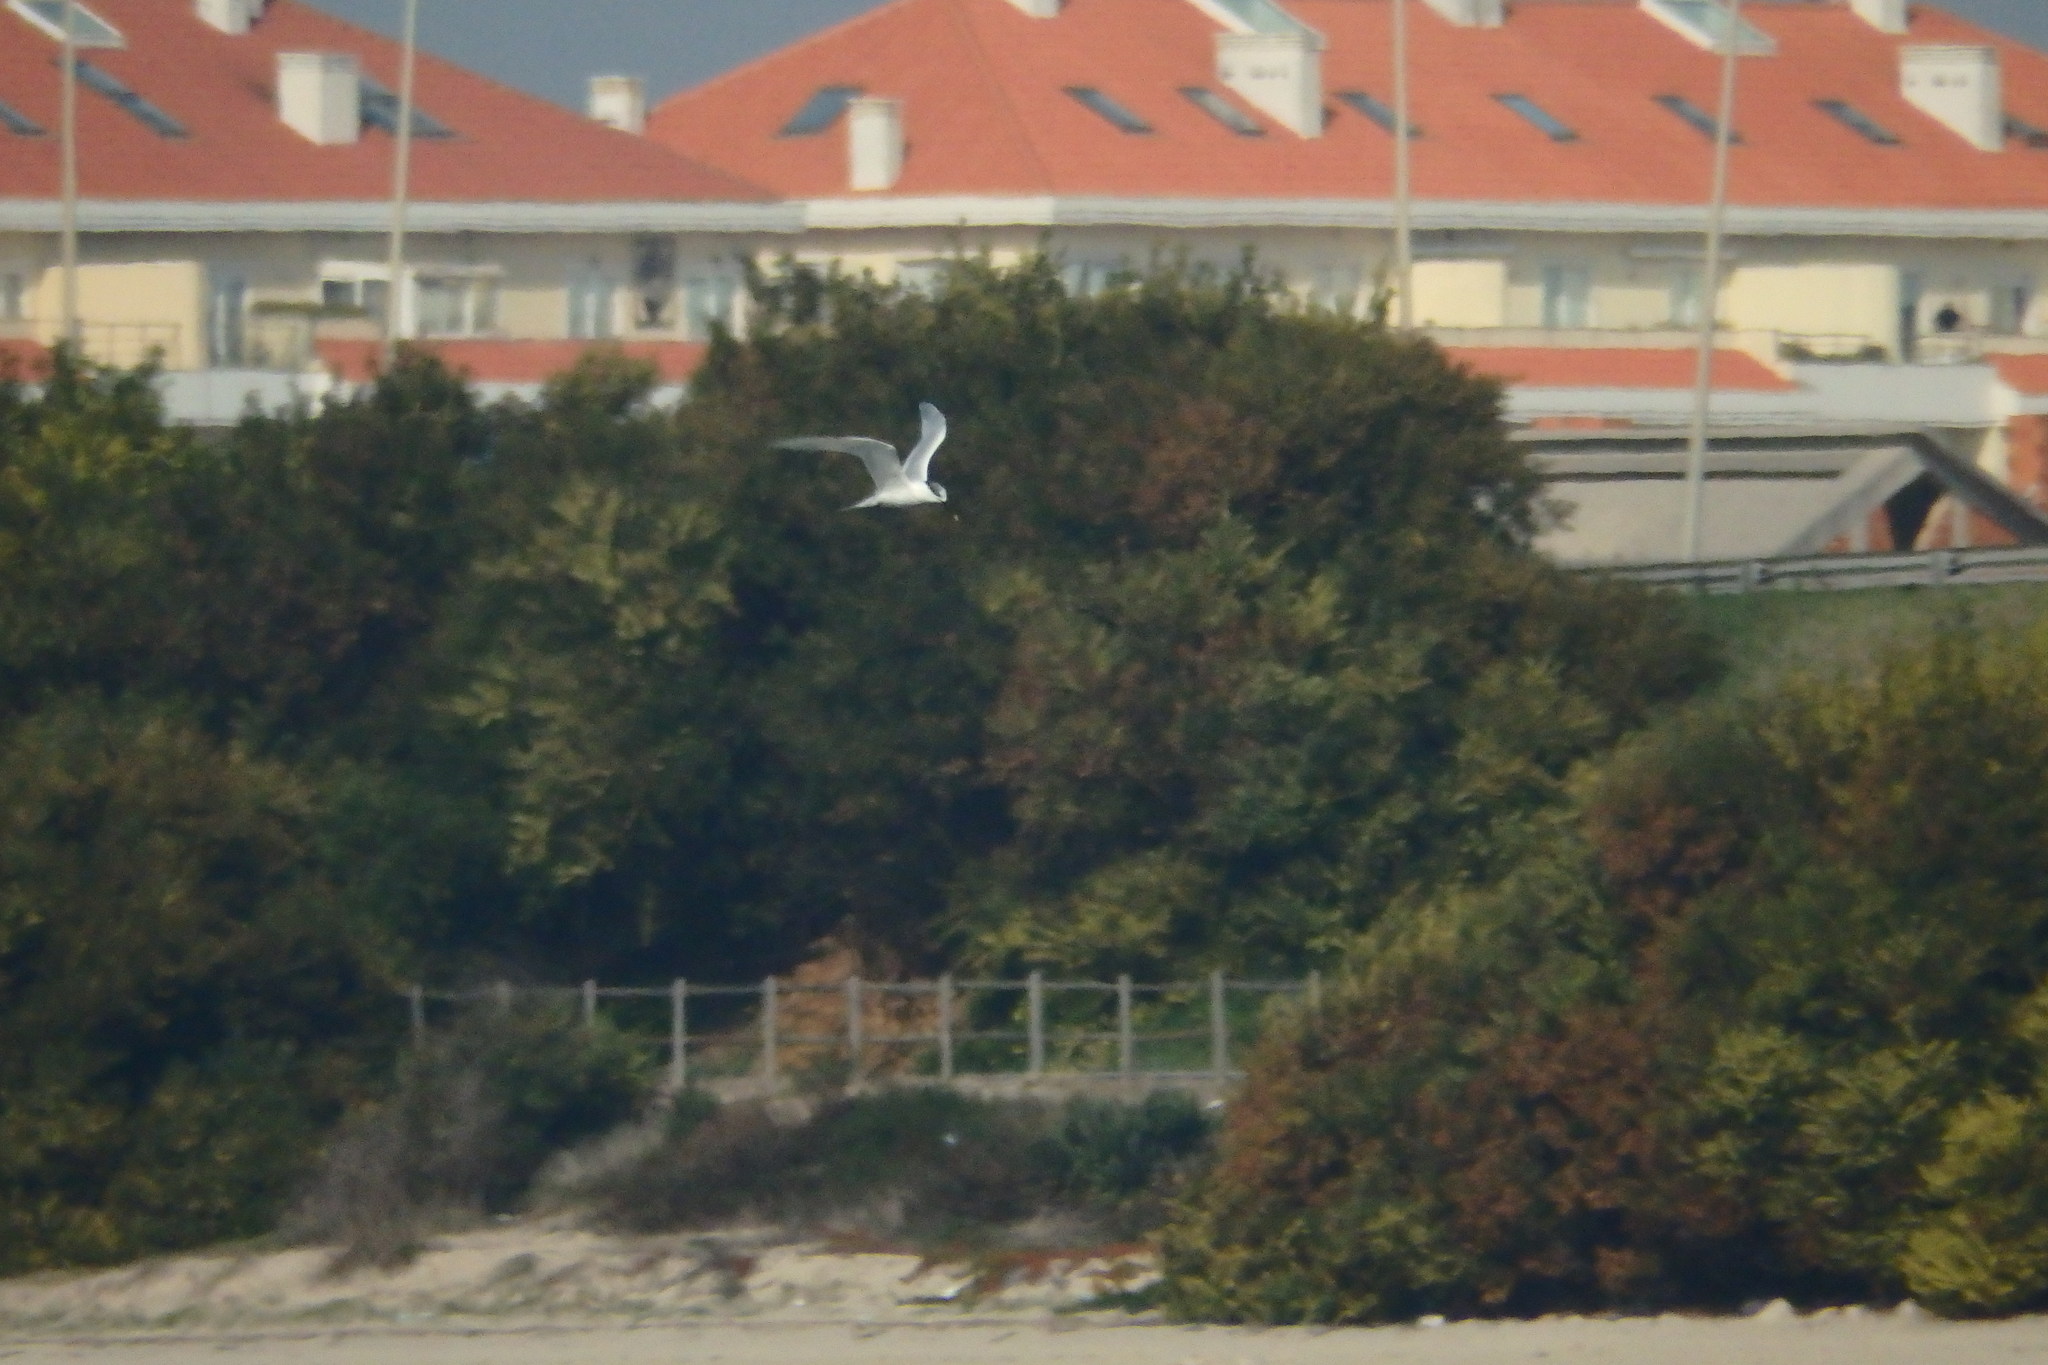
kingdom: Animalia
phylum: Chordata
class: Aves
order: Charadriiformes
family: Laridae
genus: Thalasseus
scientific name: Thalasseus sandvicensis
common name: Sandwich tern
